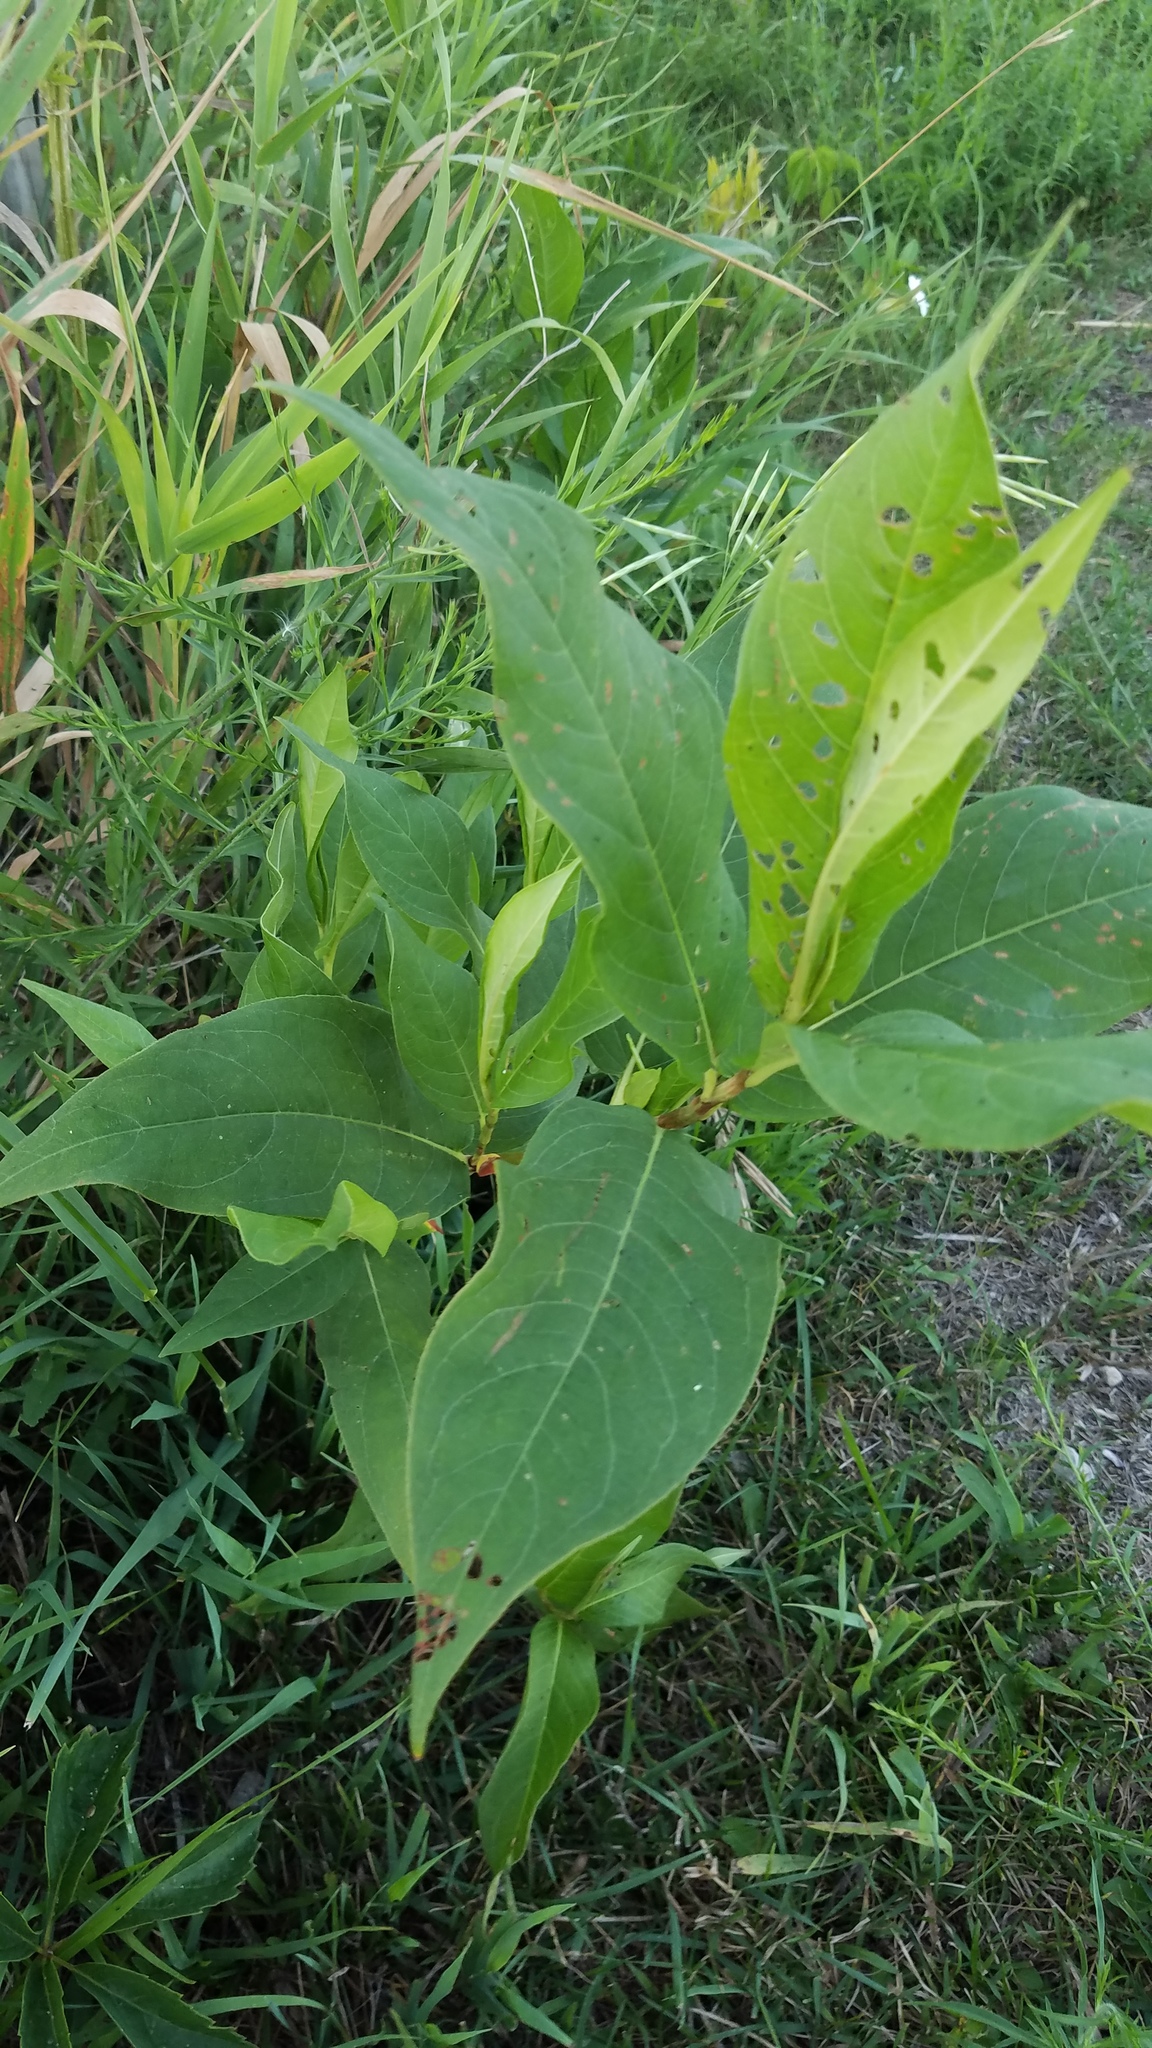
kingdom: Plantae
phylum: Tracheophyta
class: Magnoliopsida
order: Caryophyllales
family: Polygonaceae
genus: Persicaria
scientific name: Persicaria amphibia
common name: Amphibious bistort
